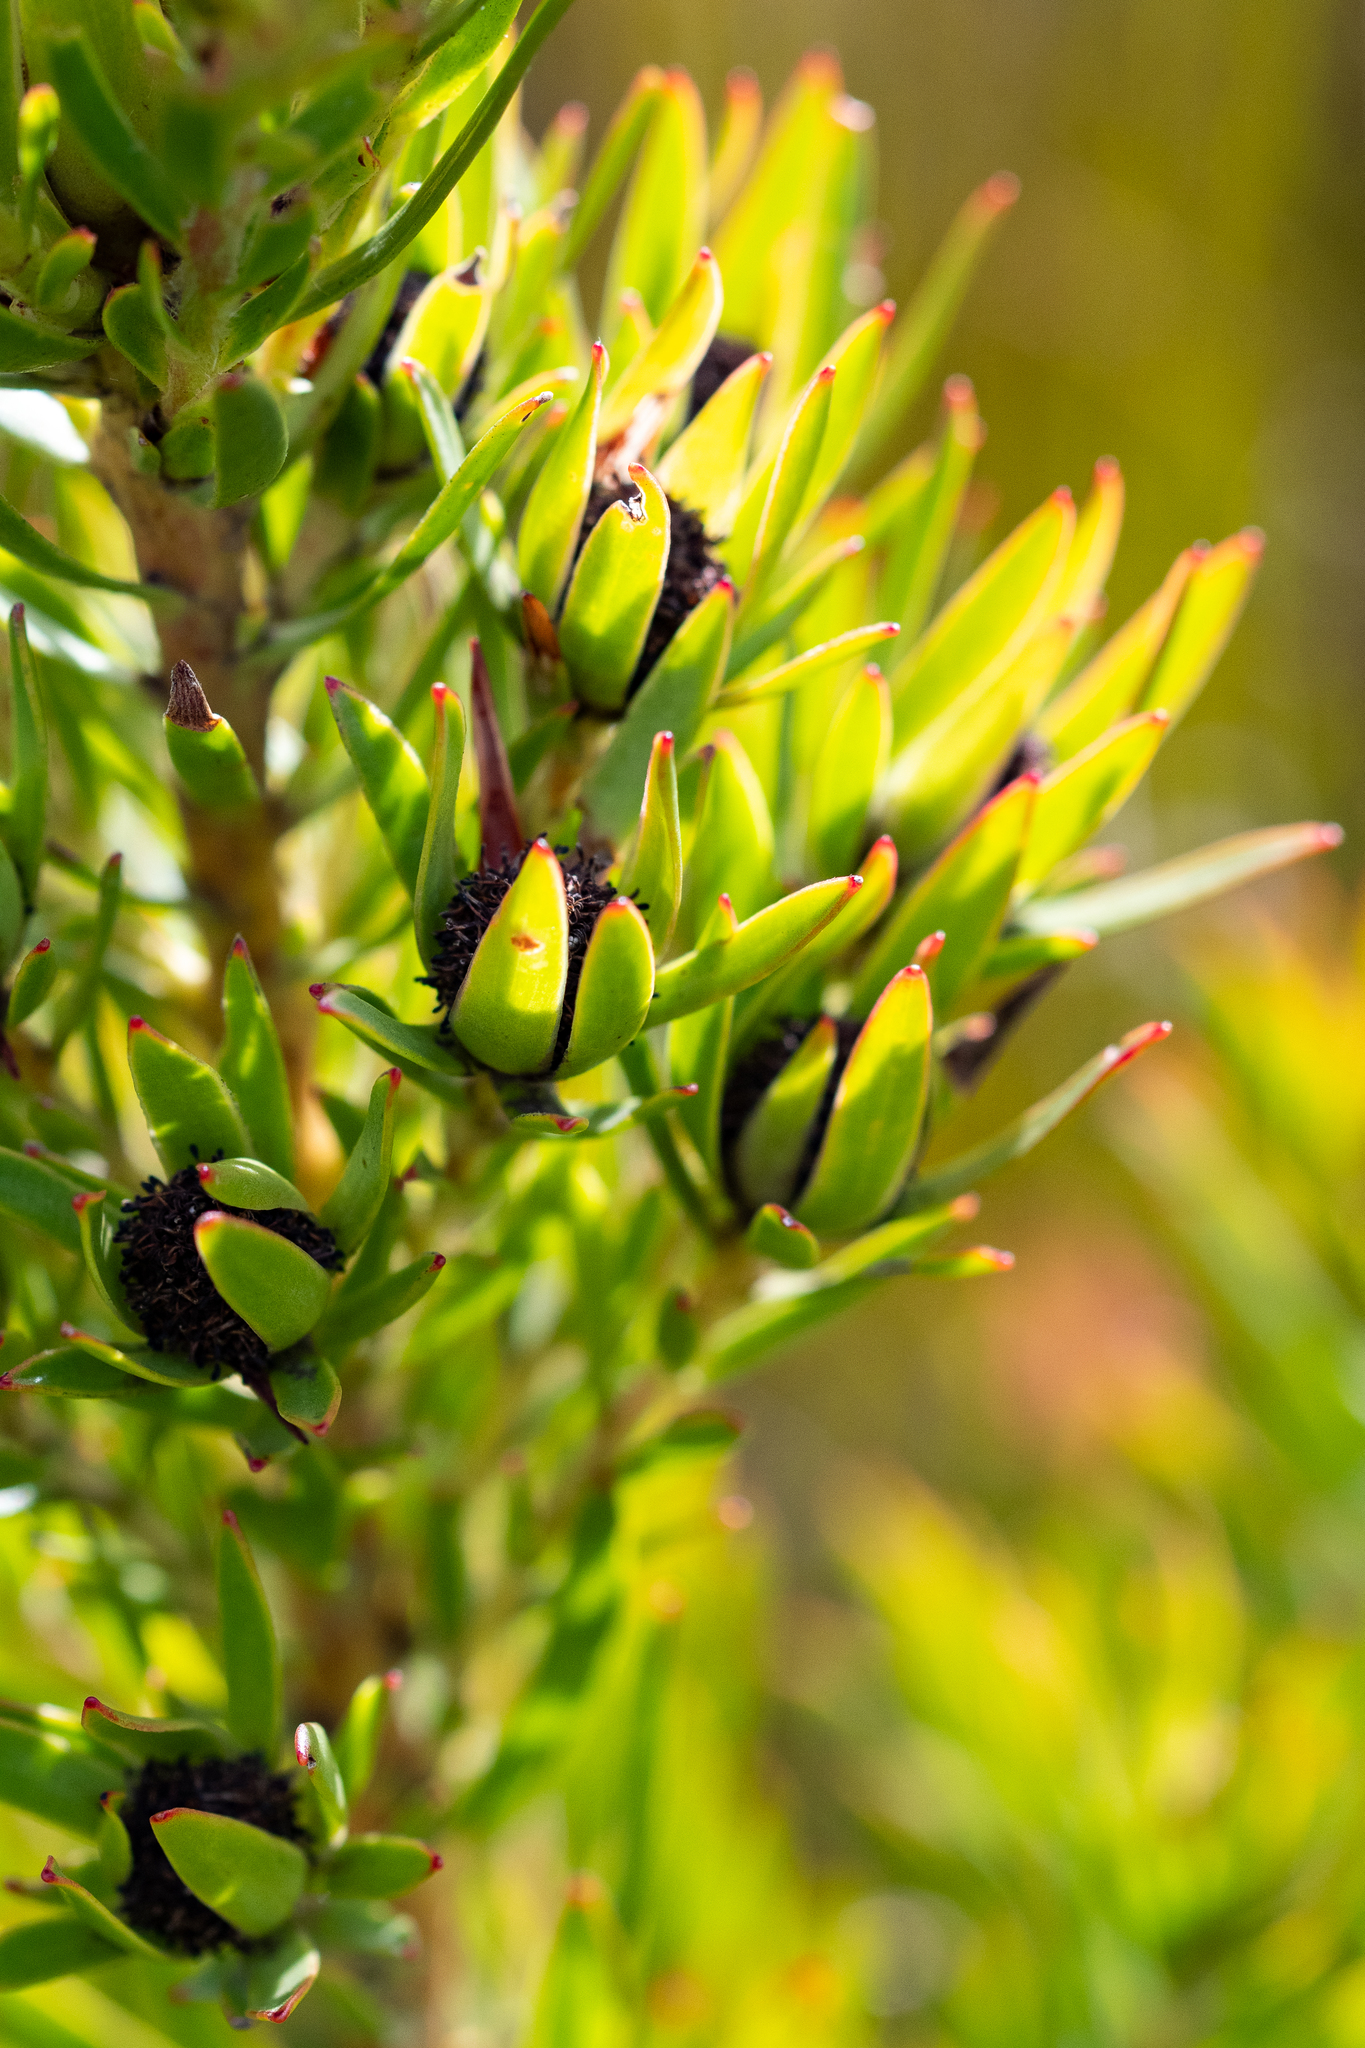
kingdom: Plantae
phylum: Tracheophyta
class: Magnoliopsida
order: Proteales
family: Proteaceae
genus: Leucadendron
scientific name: Leucadendron spissifolium
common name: Spear-leaf conebush
